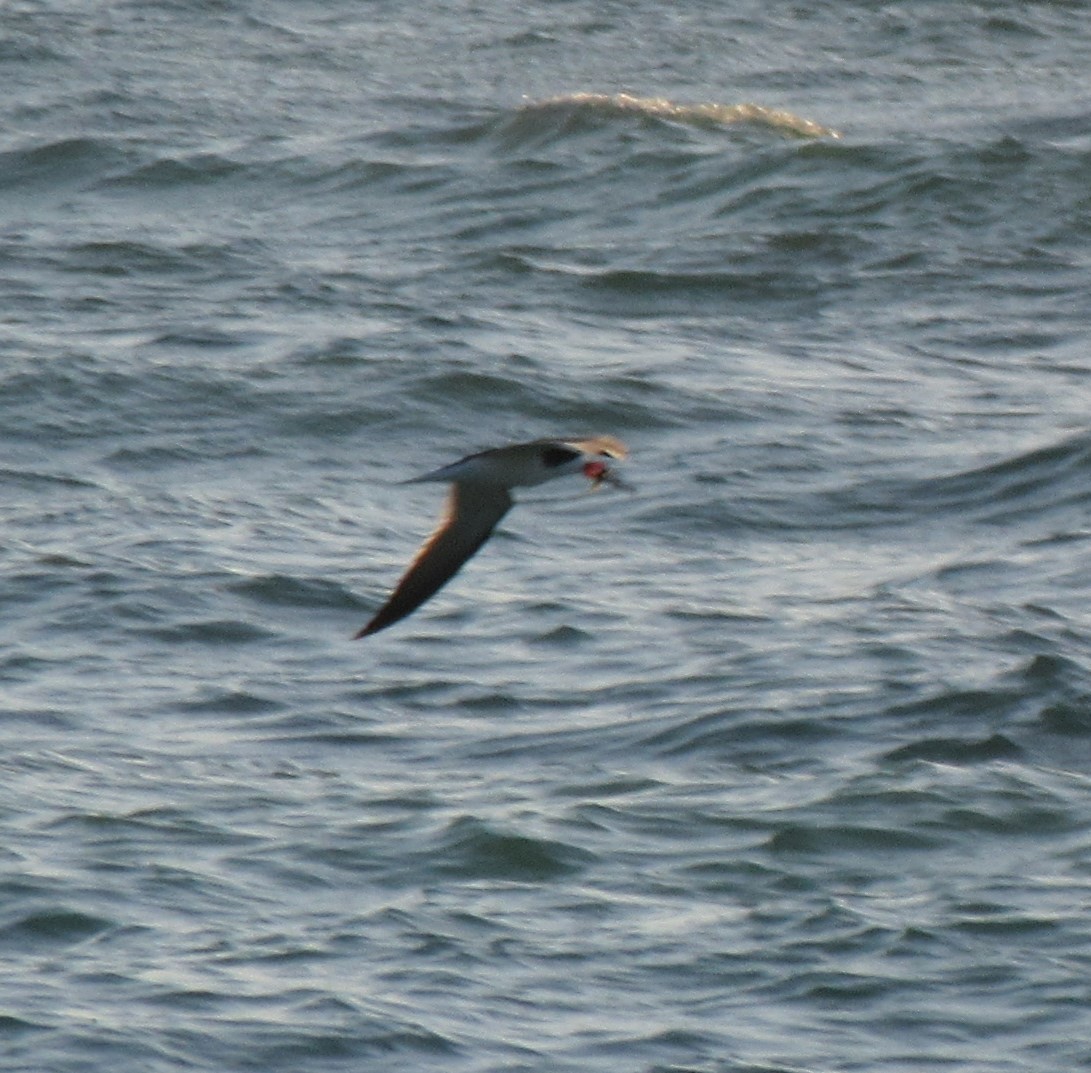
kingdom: Animalia
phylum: Chordata
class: Aves
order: Charadriiformes
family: Laridae
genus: Rynchops
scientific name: Rynchops niger
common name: Black skimmer
